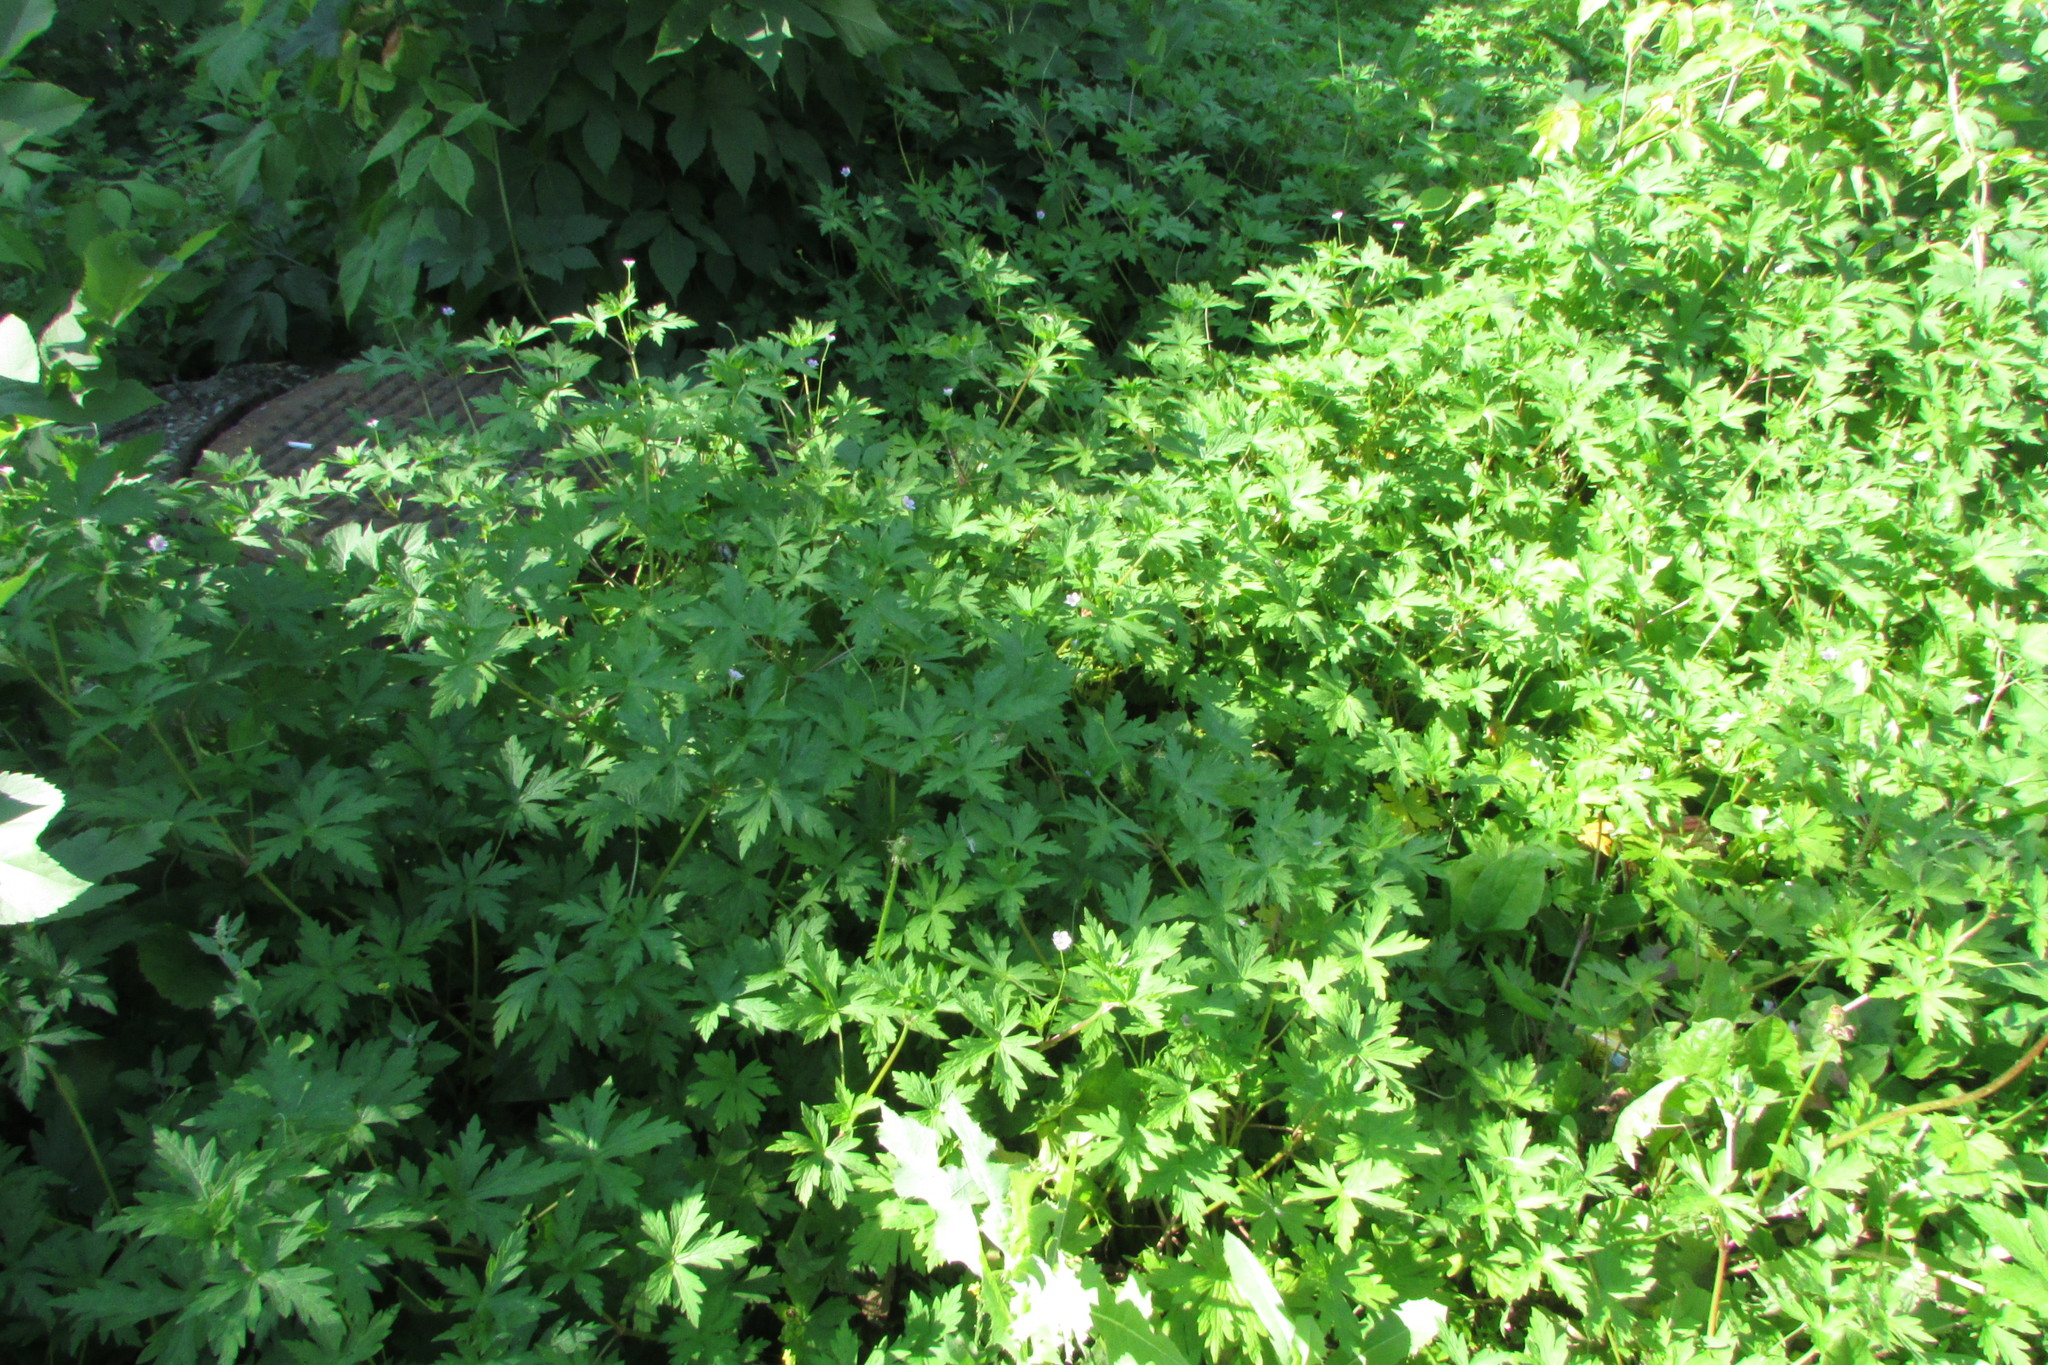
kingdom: Plantae
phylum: Tracheophyta
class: Magnoliopsida
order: Geraniales
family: Geraniaceae
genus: Geranium
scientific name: Geranium sibiricum
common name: Siberian crane's-bill
